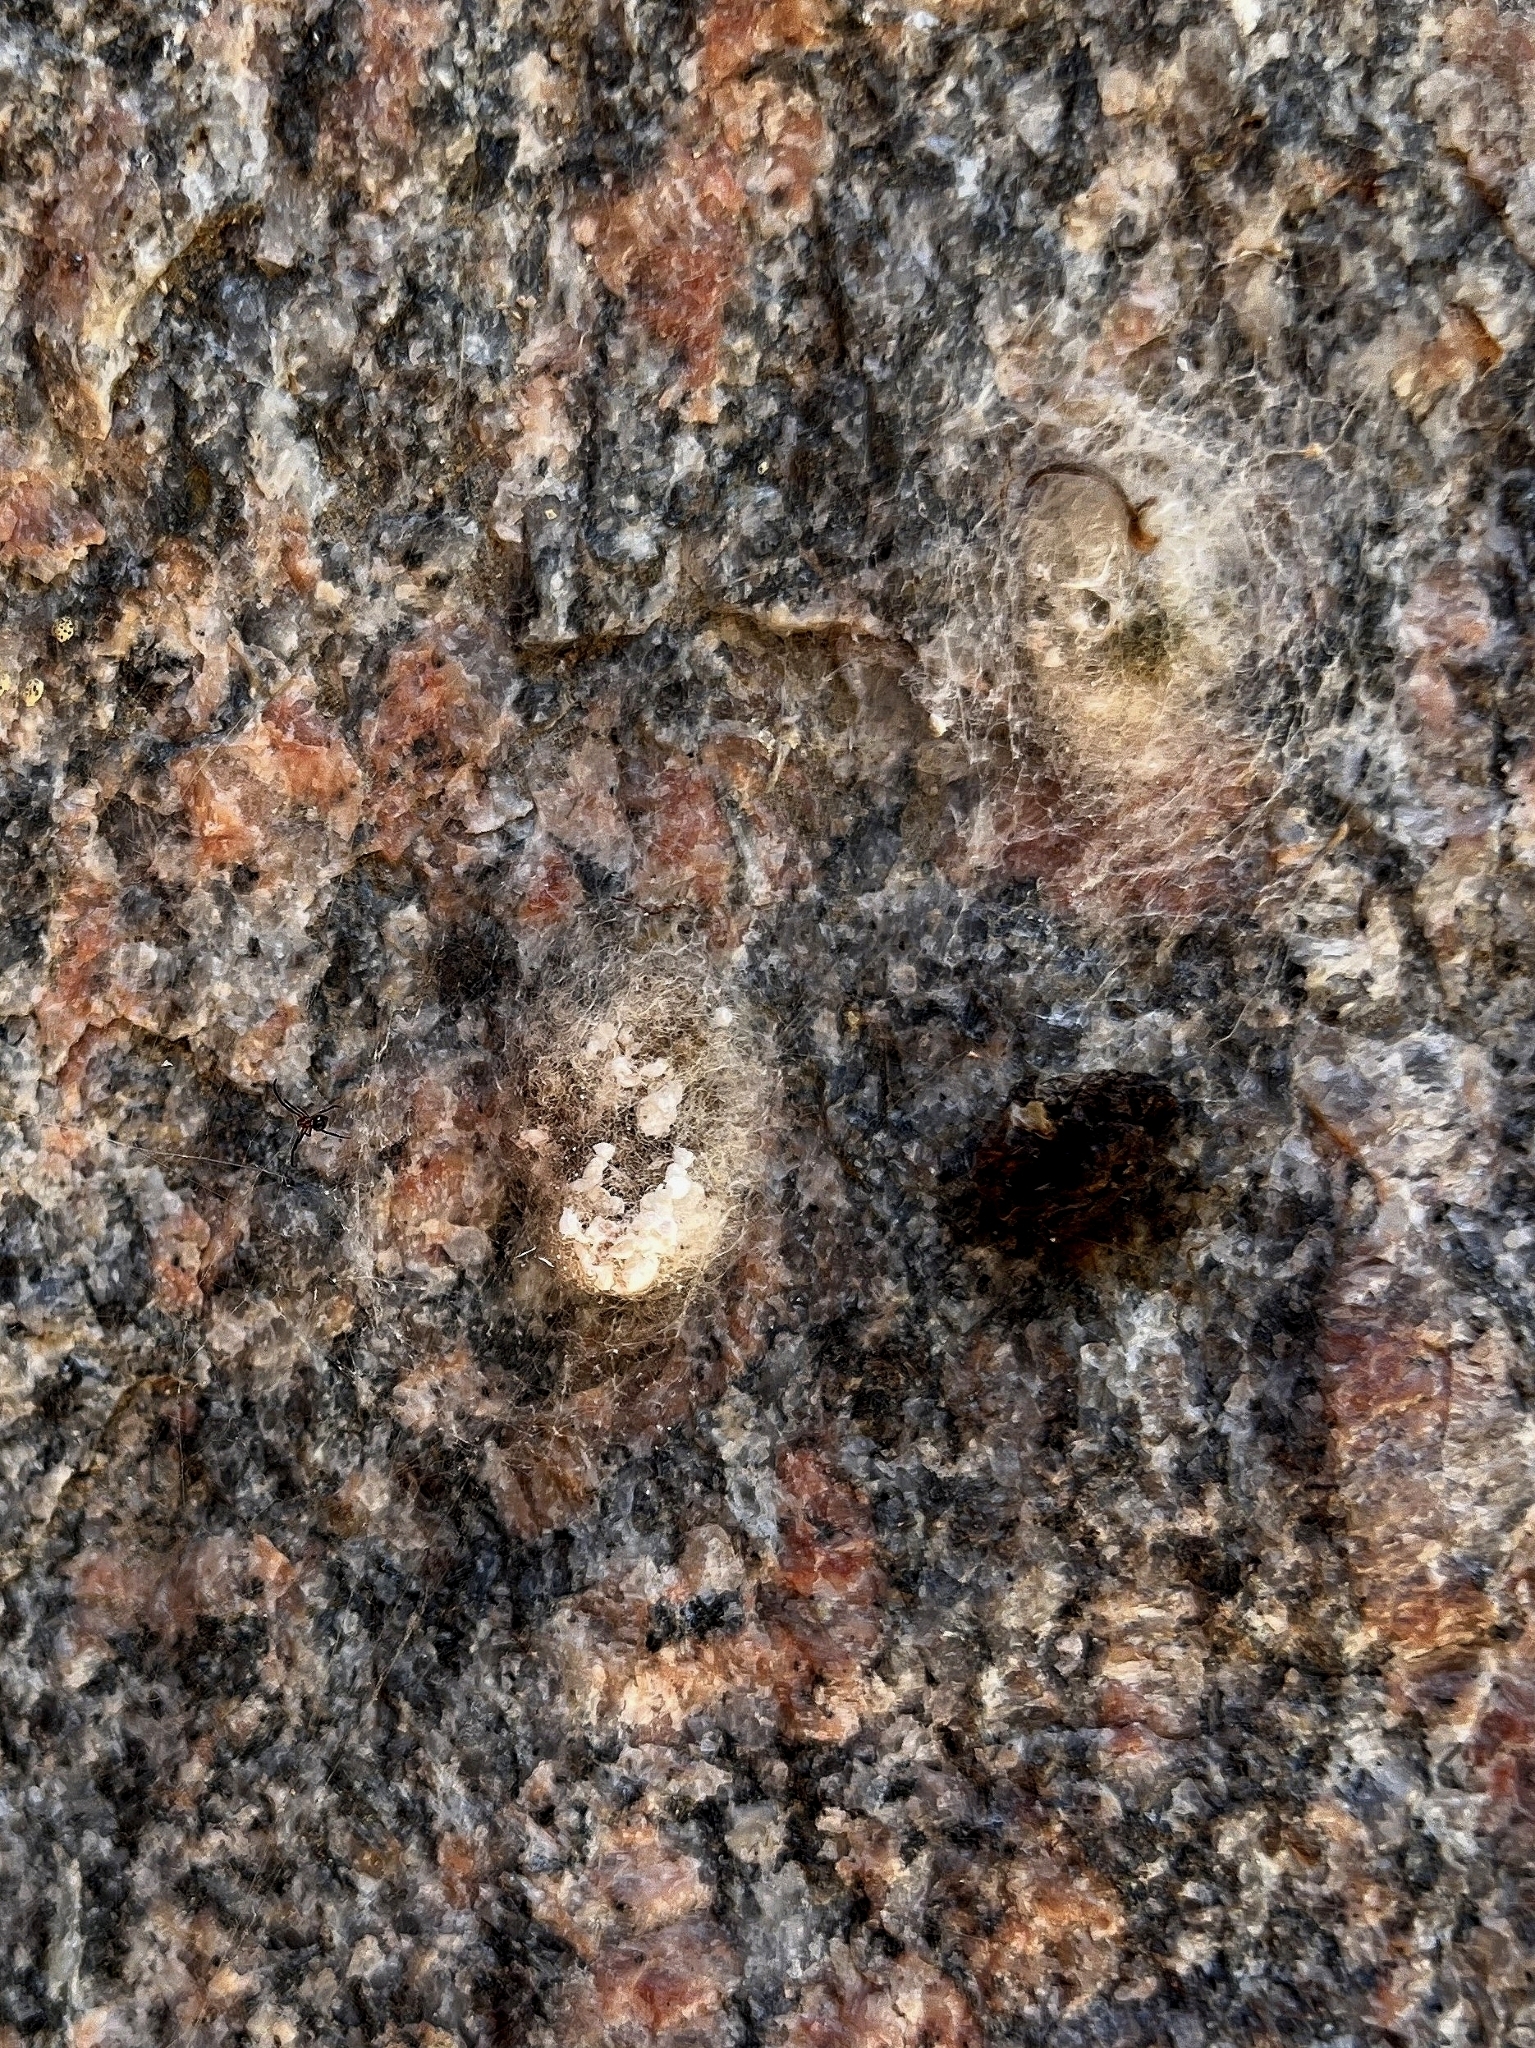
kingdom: Animalia
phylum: Arthropoda
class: Arachnida
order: Araneae
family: Araneidae
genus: Herennia
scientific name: Herennia multipuncta
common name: Spotted coin spider
